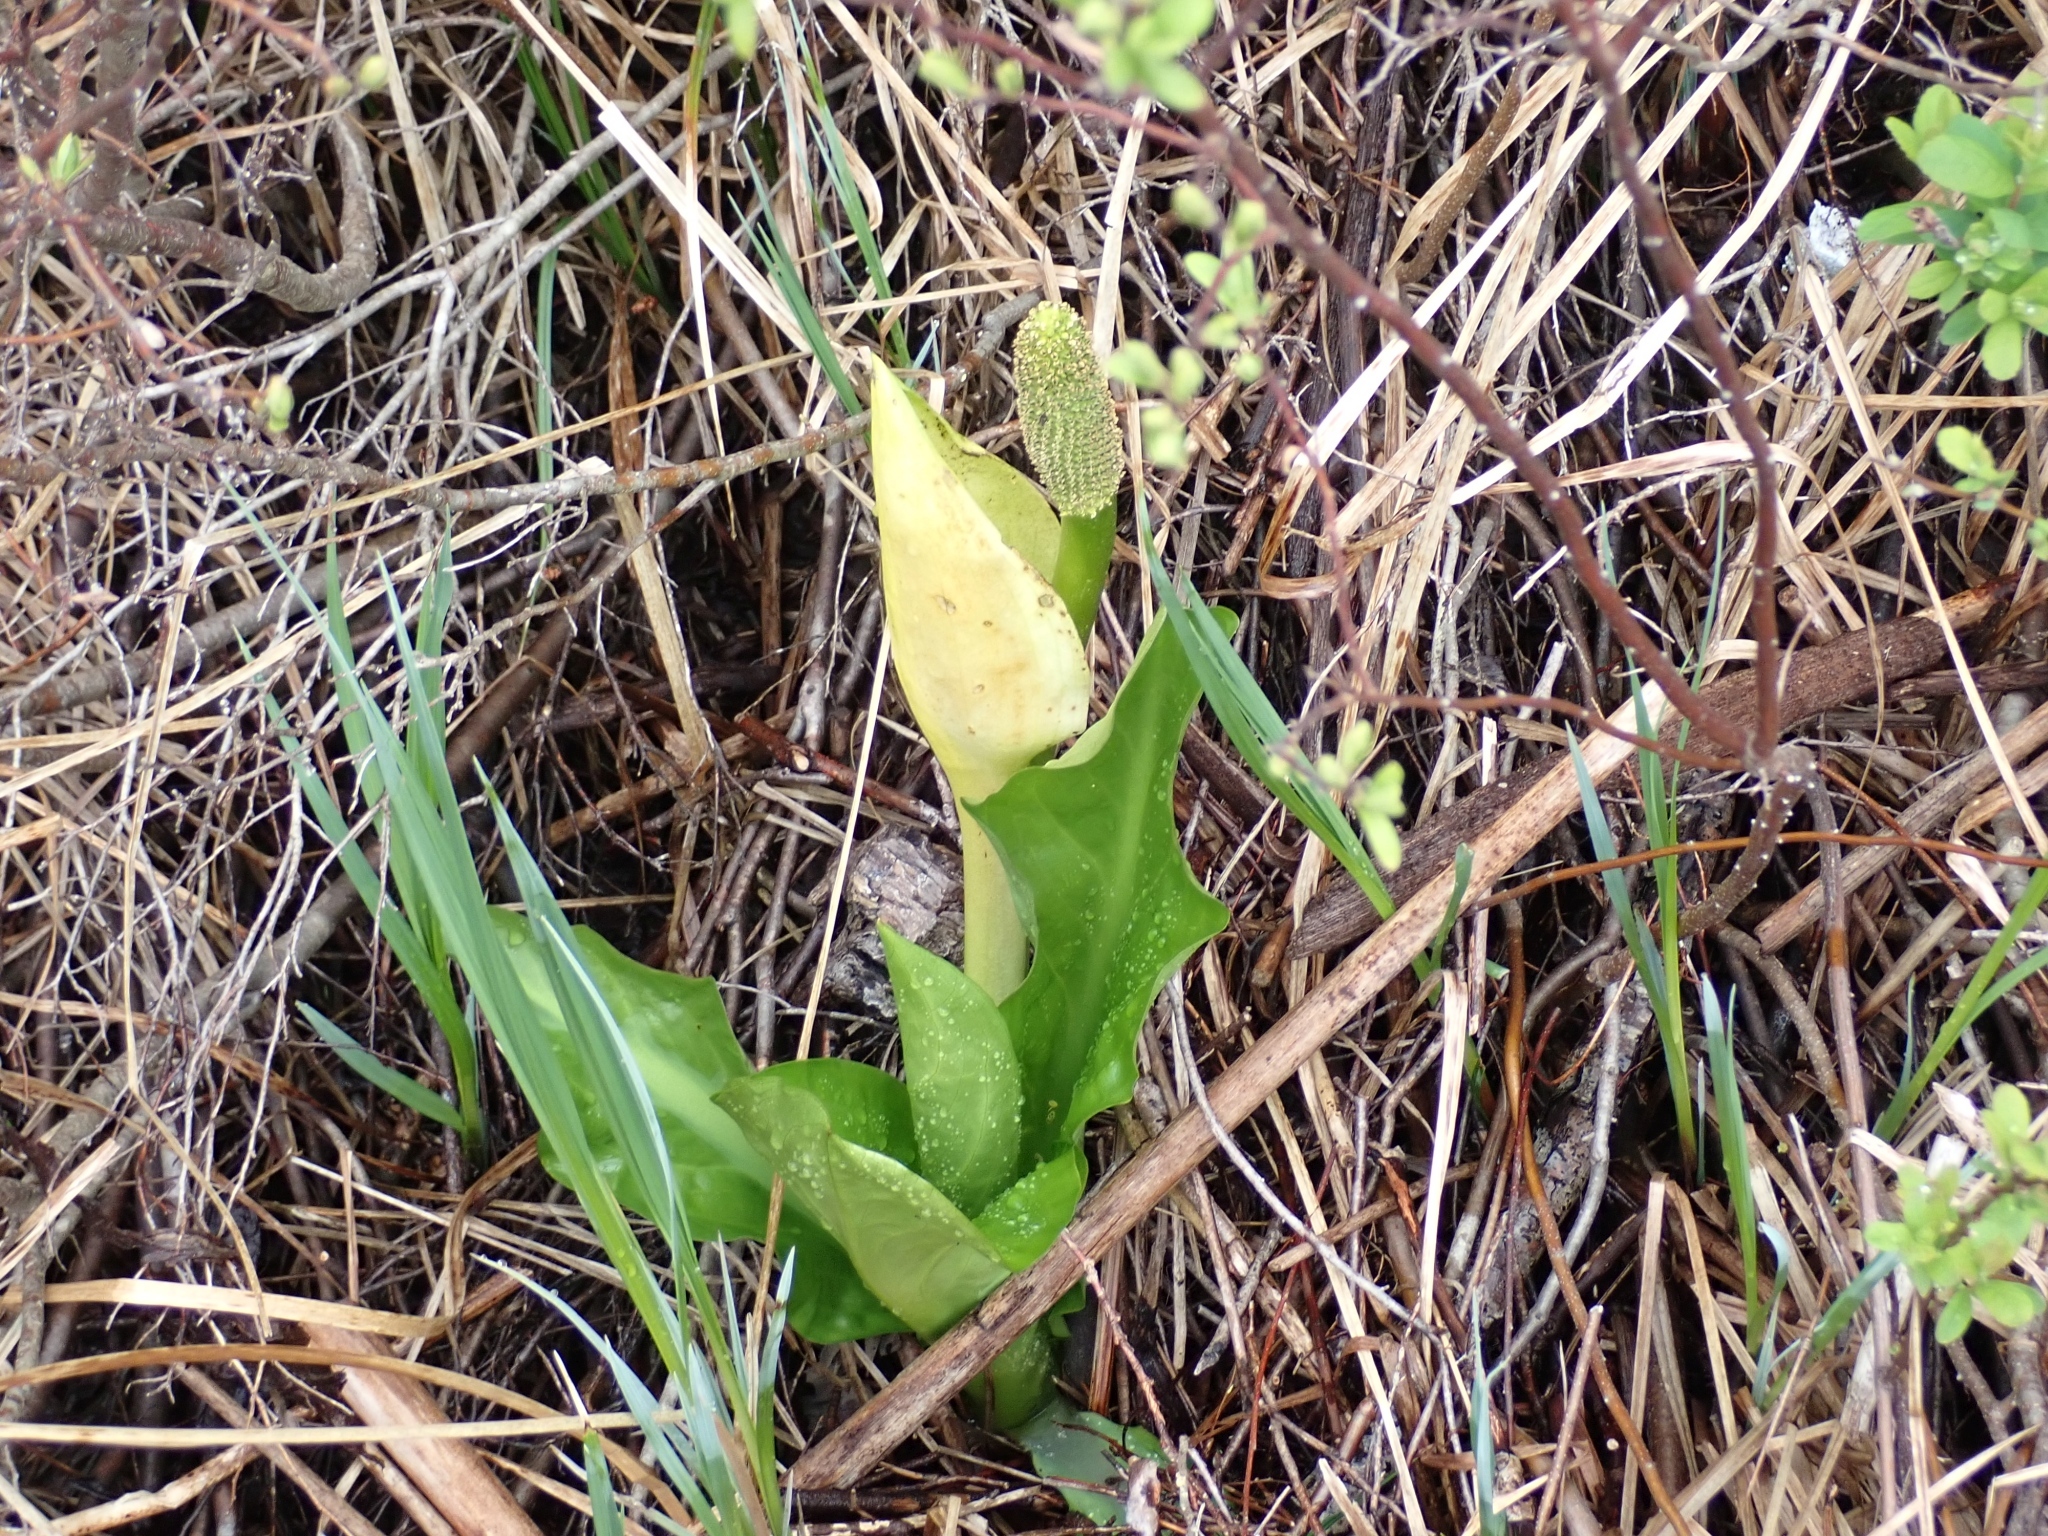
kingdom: Plantae
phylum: Tracheophyta
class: Liliopsida
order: Alismatales
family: Araceae
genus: Lysichiton
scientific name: Lysichiton americanus
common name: American skunk cabbage
